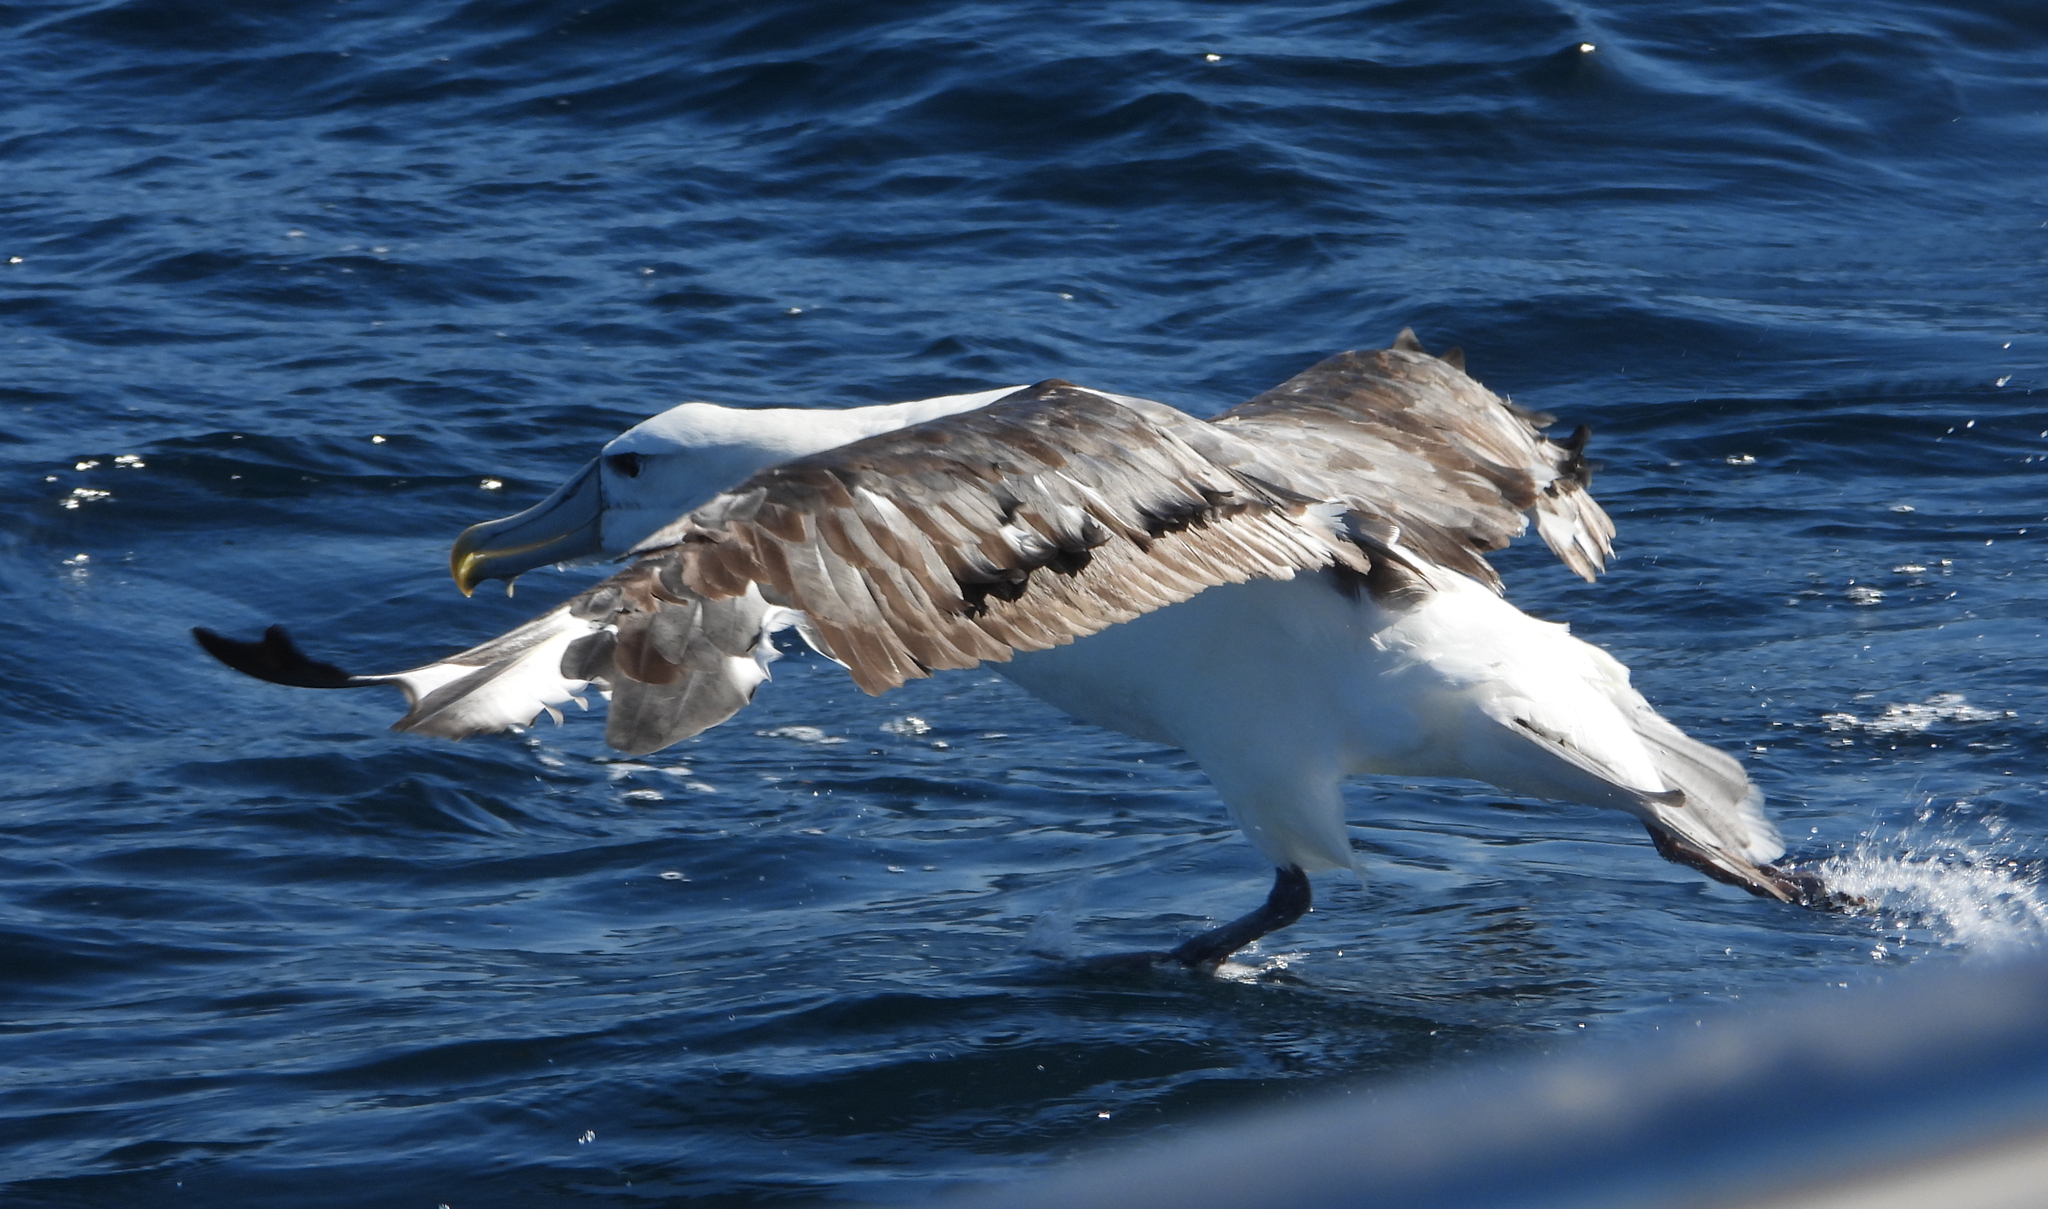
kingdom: Animalia
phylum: Chordata
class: Aves
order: Procellariiformes
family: Diomedeidae
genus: Thalassarche
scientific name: Thalassarche cauta
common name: Shy albatross
